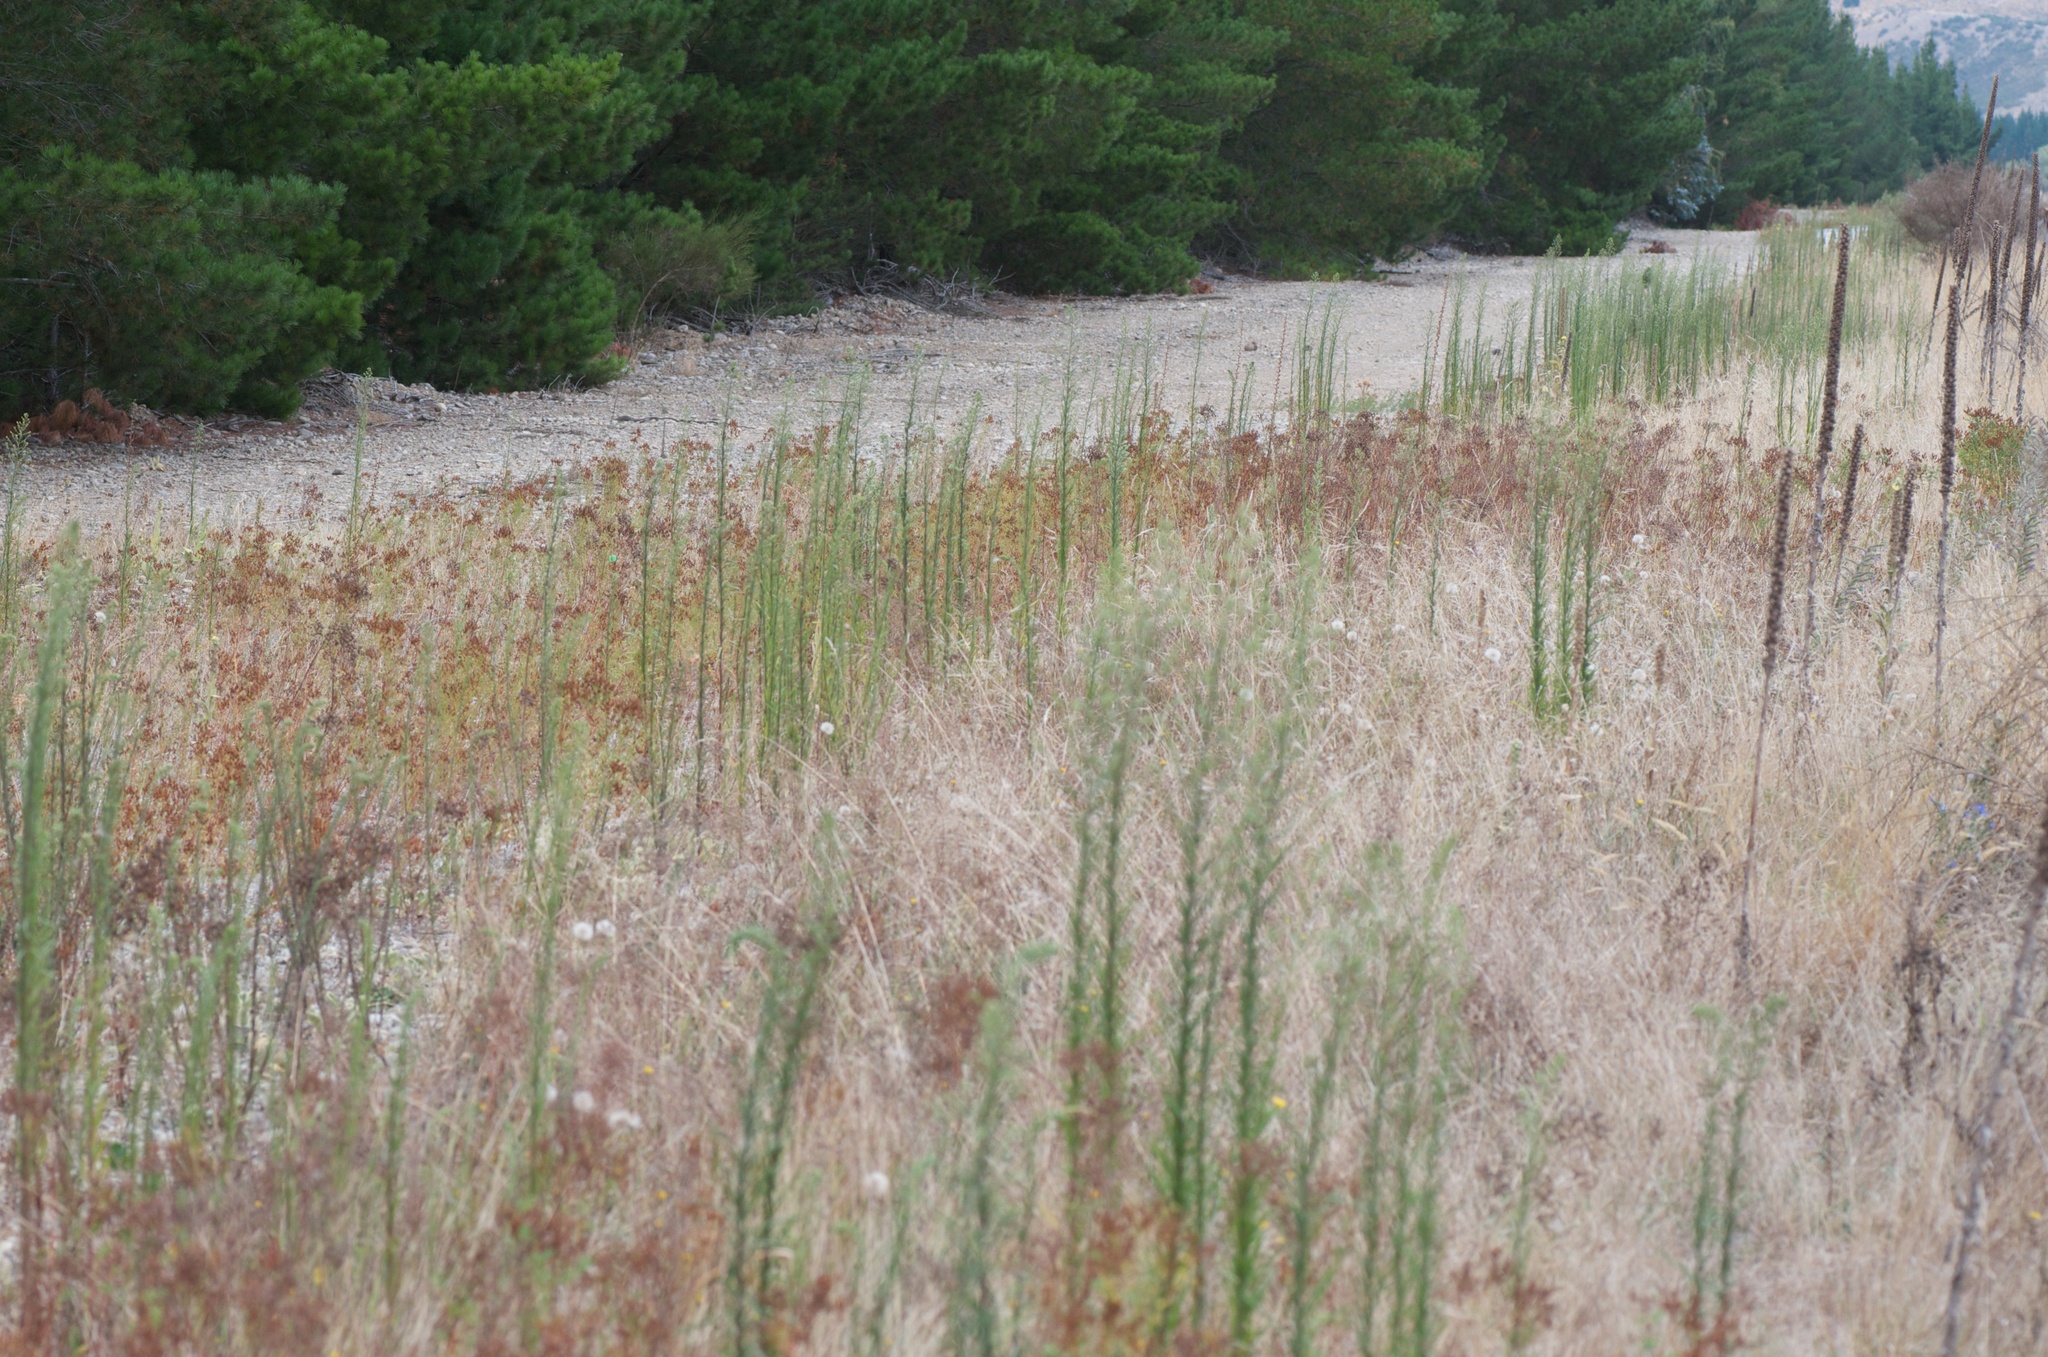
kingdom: Plantae
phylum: Tracheophyta
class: Magnoliopsida
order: Malpighiales
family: Hypericaceae
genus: Hypericum
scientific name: Hypericum perforatum
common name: Common st. johnswort
